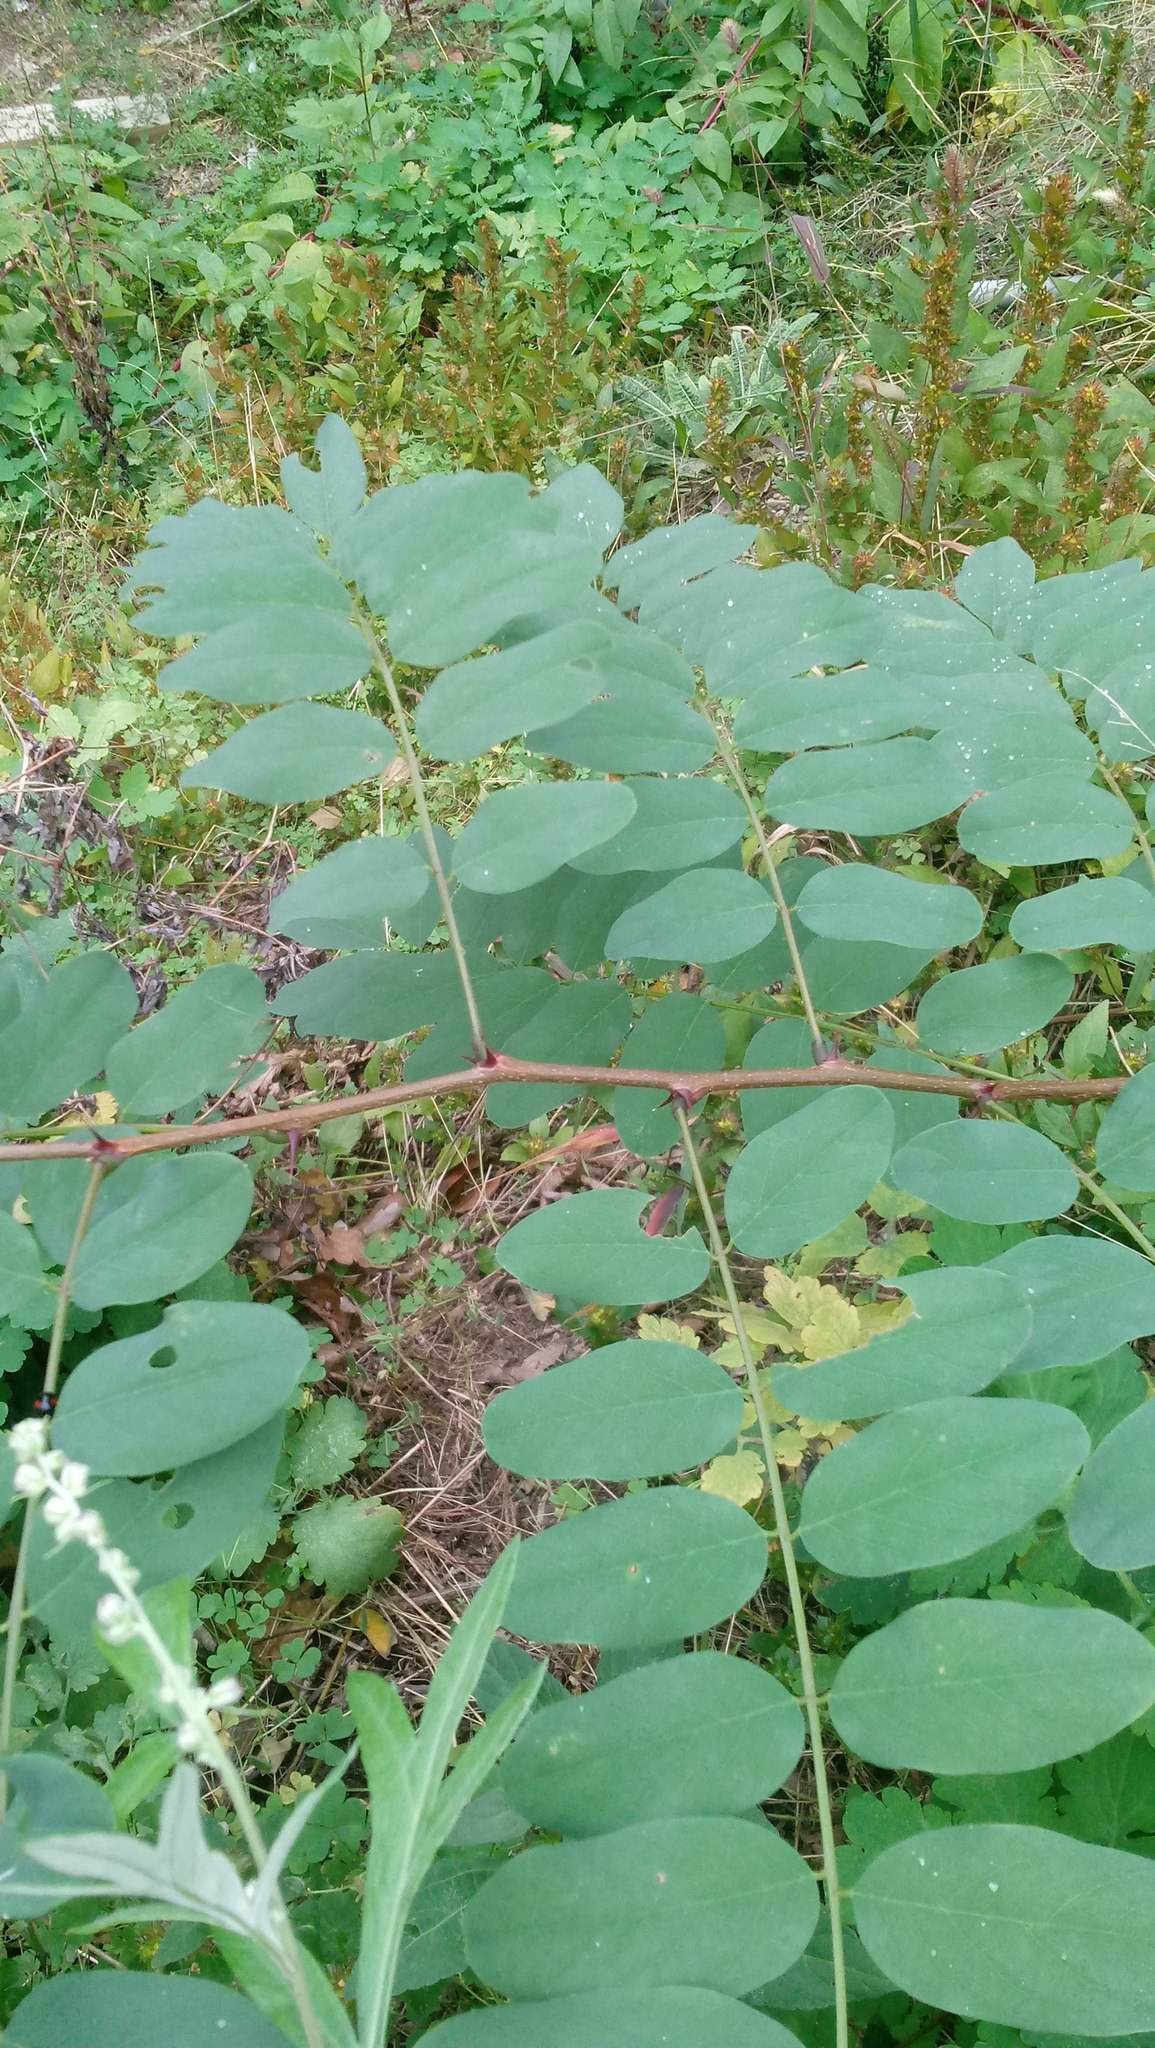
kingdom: Plantae
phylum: Tracheophyta
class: Magnoliopsida
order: Fabales
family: Fabaceae
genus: Robinia
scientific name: Robinia pseudoacacia
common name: Black locust
